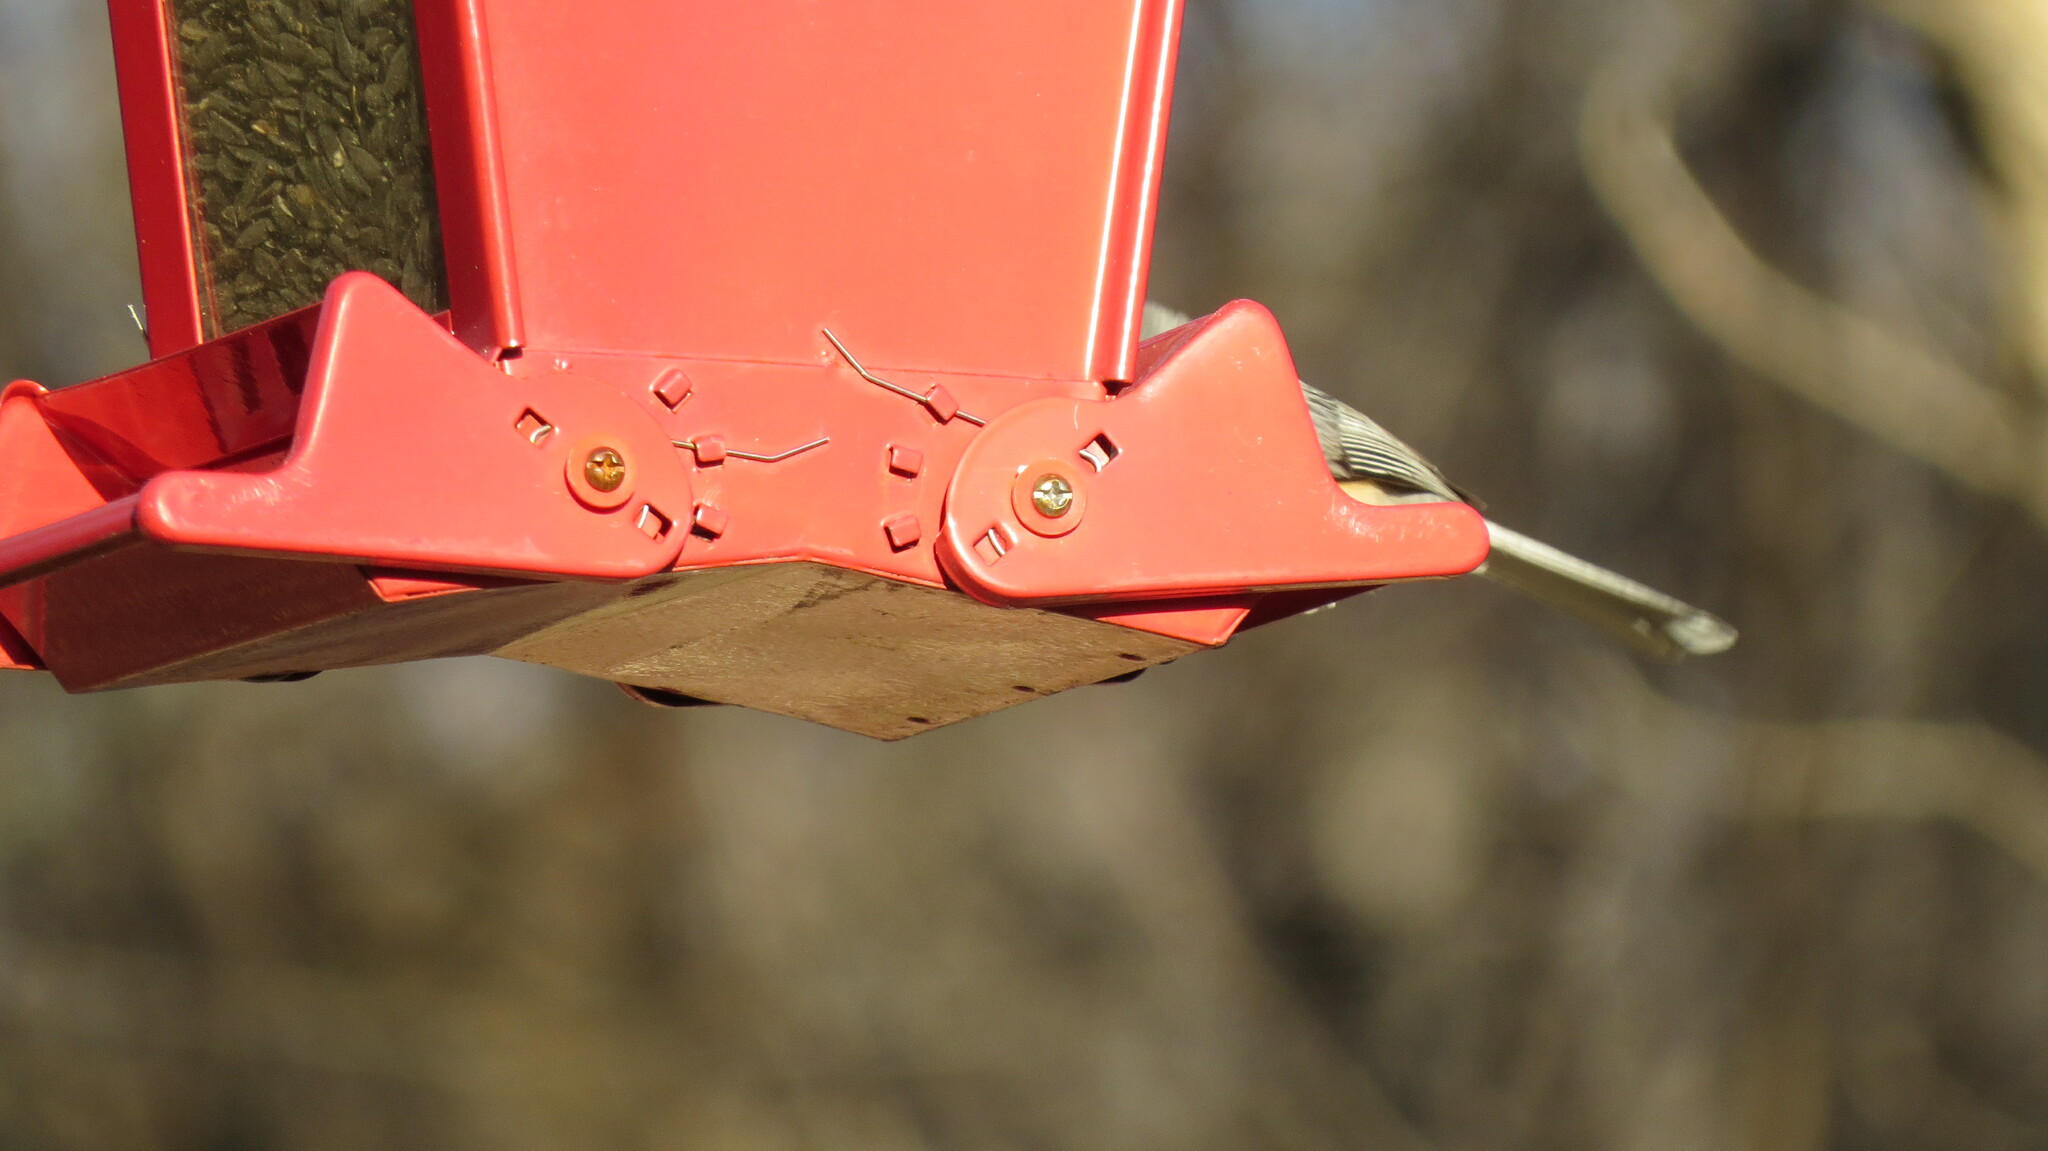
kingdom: Animalia
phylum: Chordata
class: Aves
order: Passeriformes
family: Paridae
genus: Baeolophus
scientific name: Baeolophus bicolor
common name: Tufted titmouse
